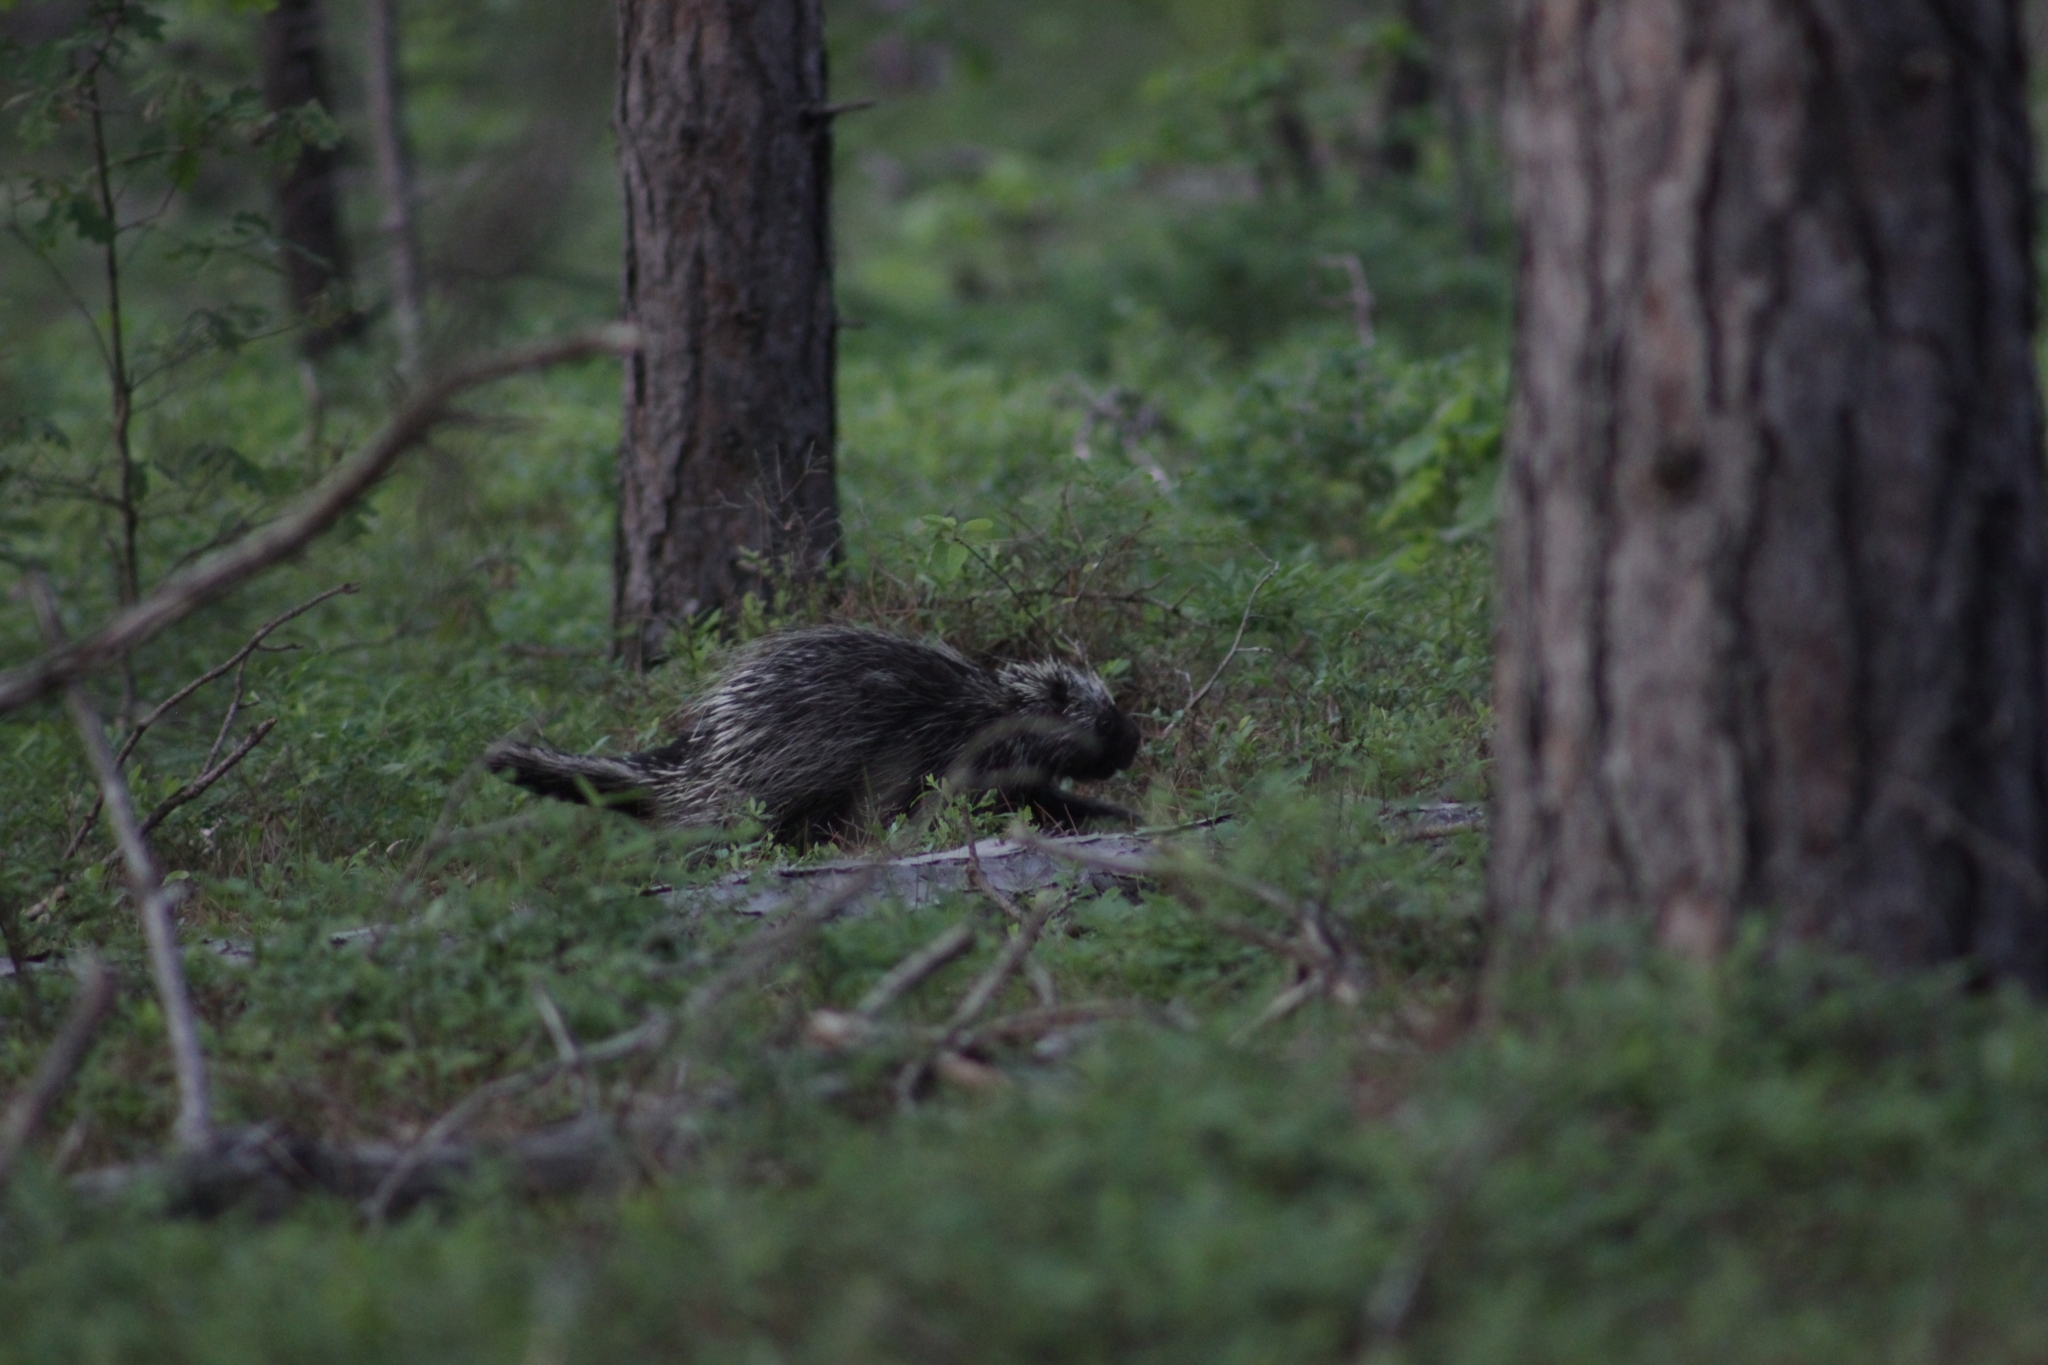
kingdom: Animalia
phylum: Chordata
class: Mammalia
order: Rodentia
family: Erethizontidae
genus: Erethizon
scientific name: Erethizon dorsatus
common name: North american porcupine
